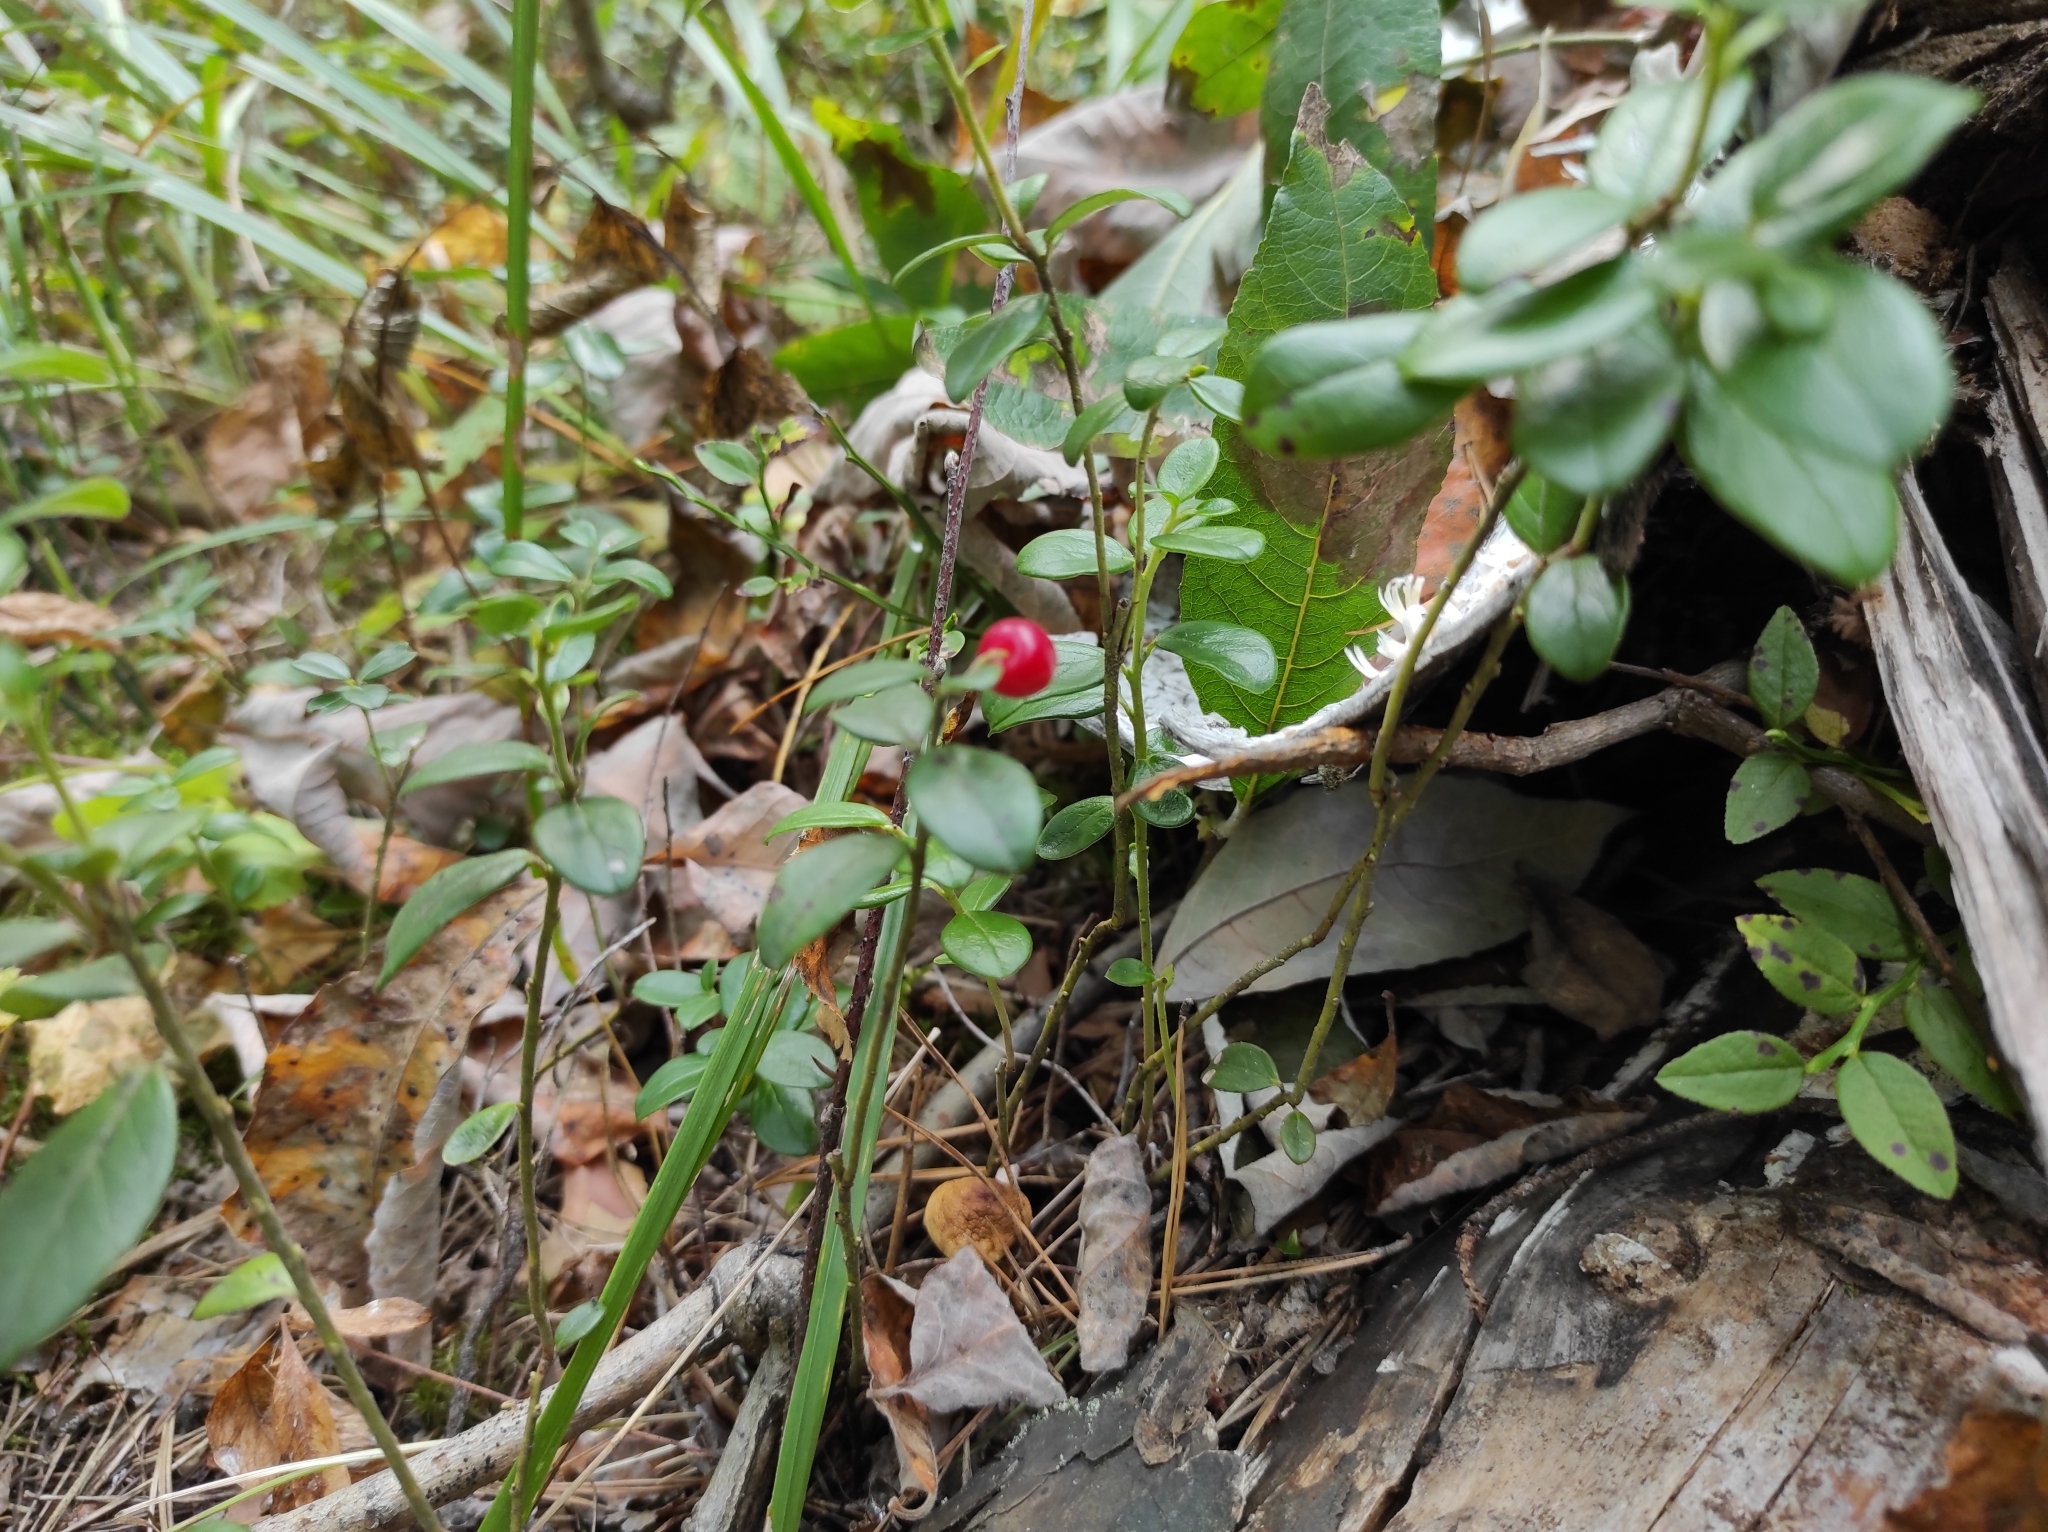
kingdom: Plantae
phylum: Tracheophyta
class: Magnoliopsida
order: Ericales
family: Ericaceae
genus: Vaccinium
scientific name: Vaccinium vitis-idaea
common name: Cowberry
